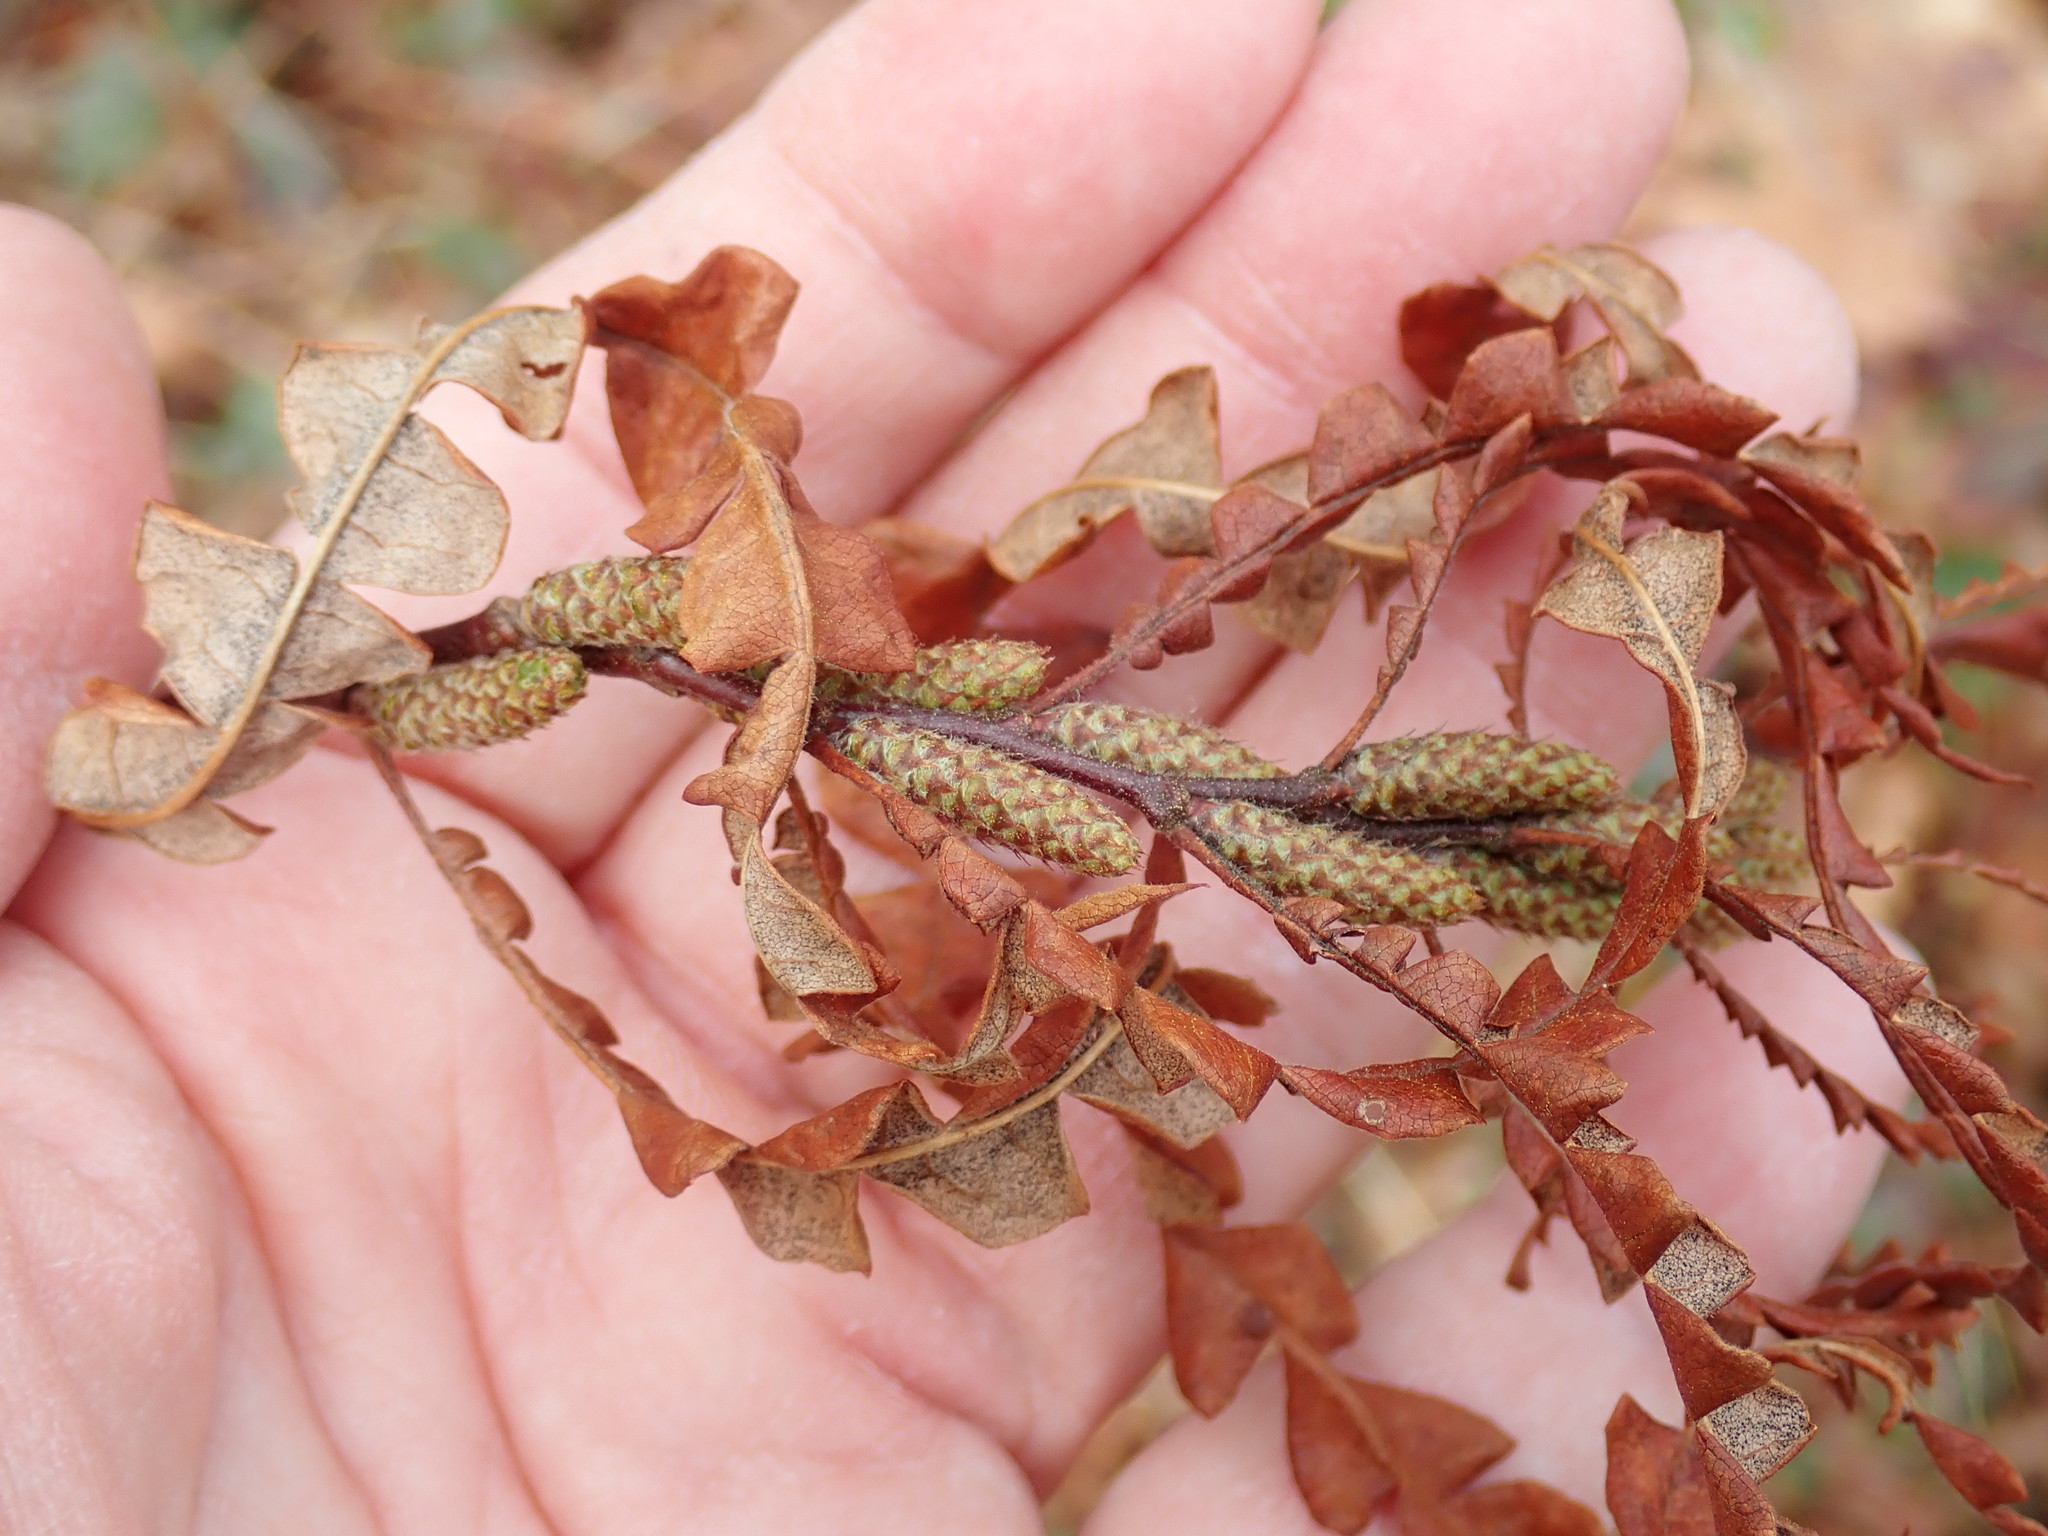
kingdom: Plantae
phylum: Tracheophyta
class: Magnoliopsida
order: Fagales
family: Myricaceae
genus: Comptonia
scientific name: Comptonia peregrina
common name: Sweet-fern
